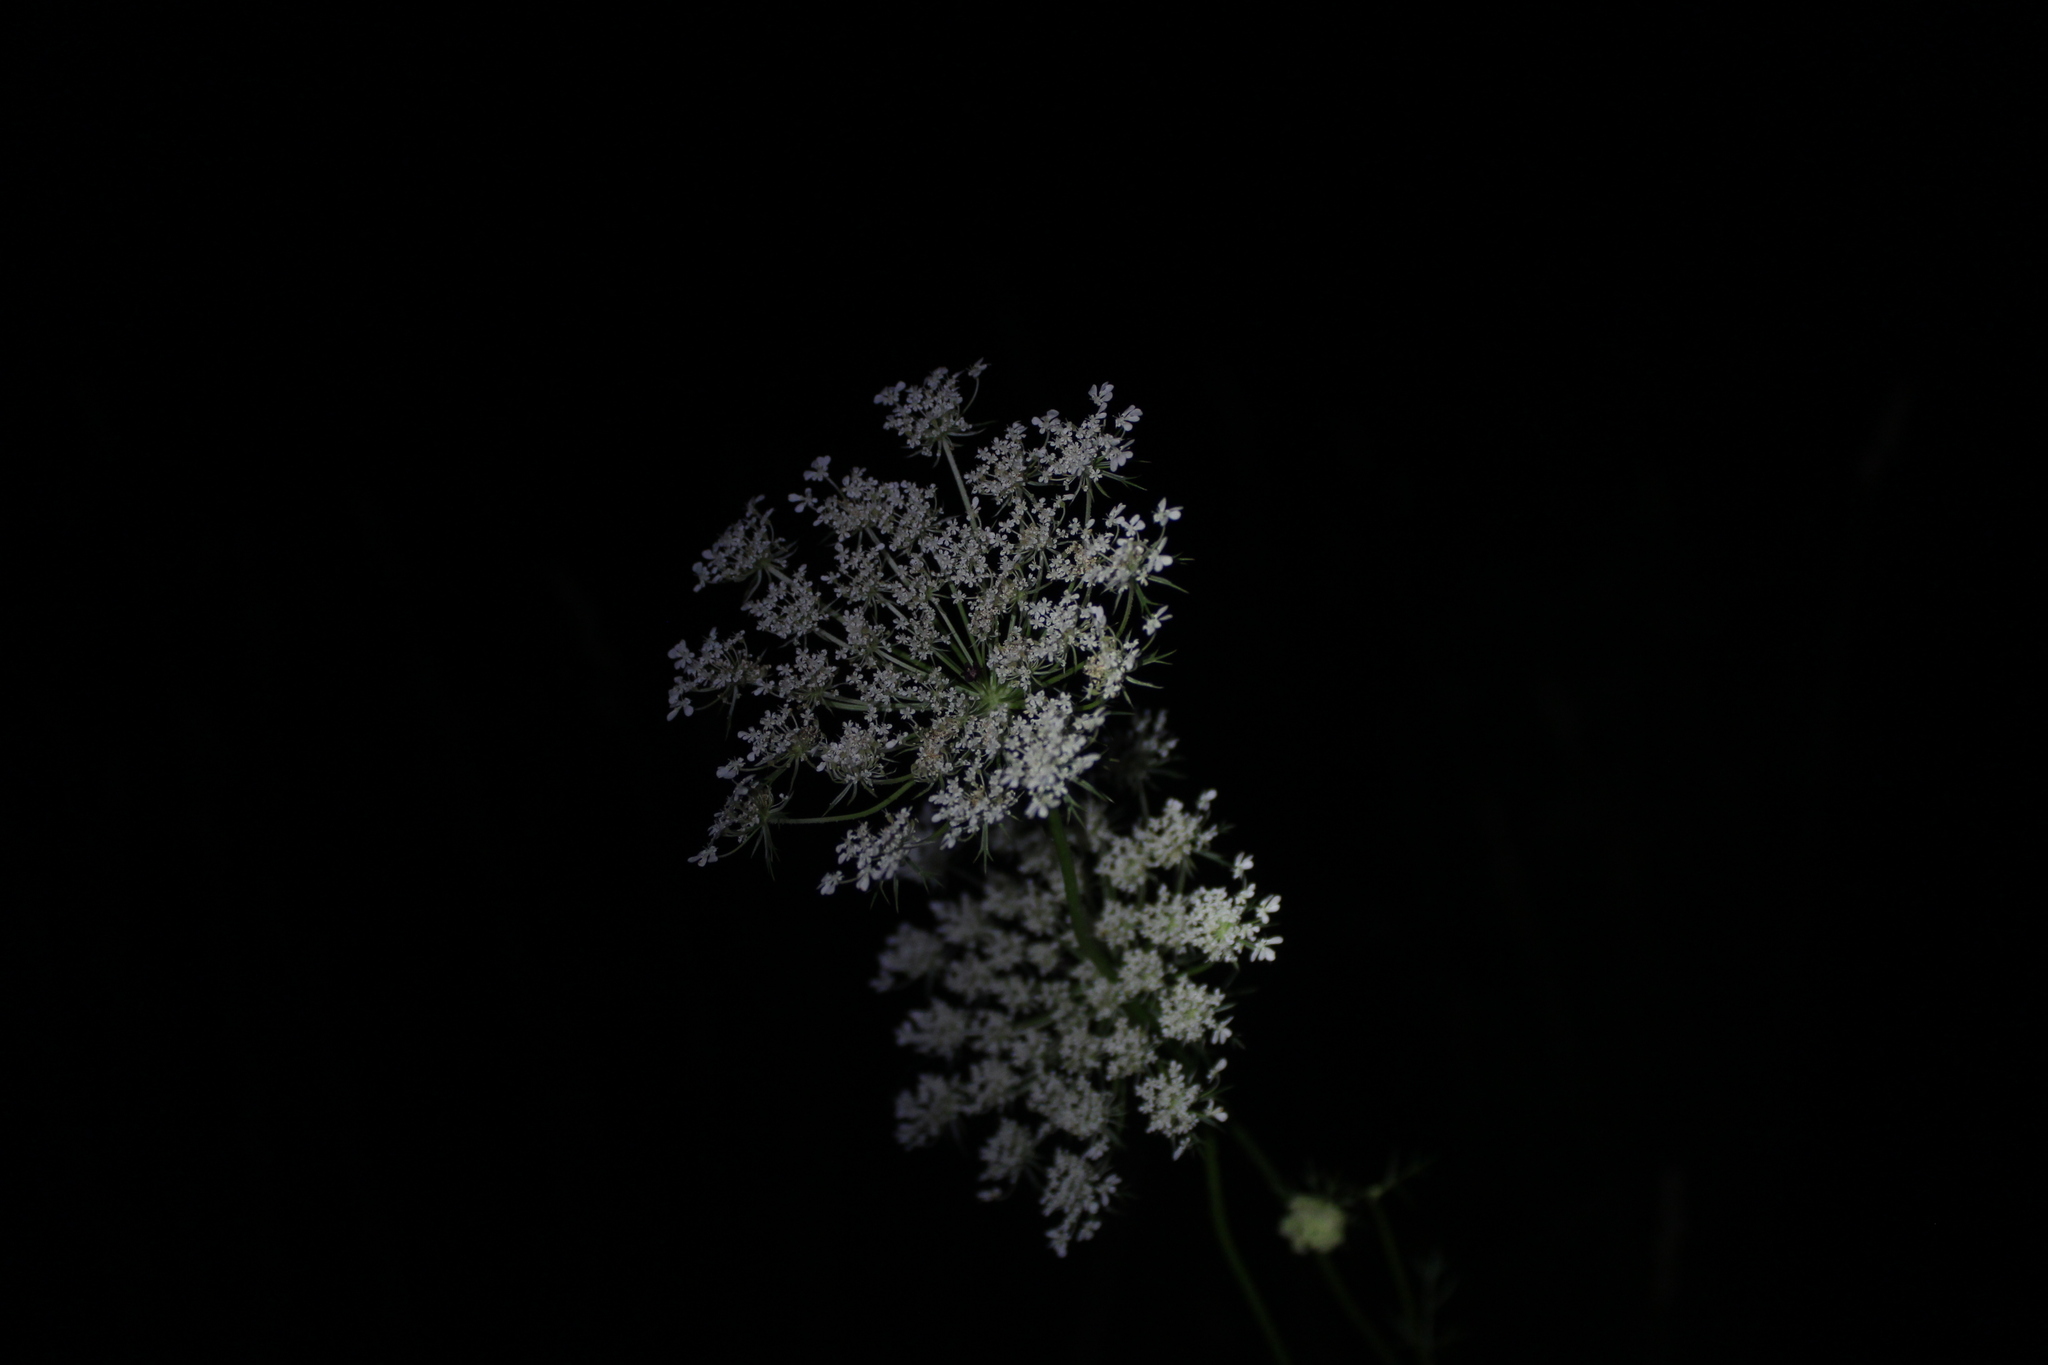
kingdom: Plantae
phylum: Tracheophyta
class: Magnoliopsida
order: Apiales
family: Apiaceae
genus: Daucus
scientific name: Daucus carota
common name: Wild carrot
